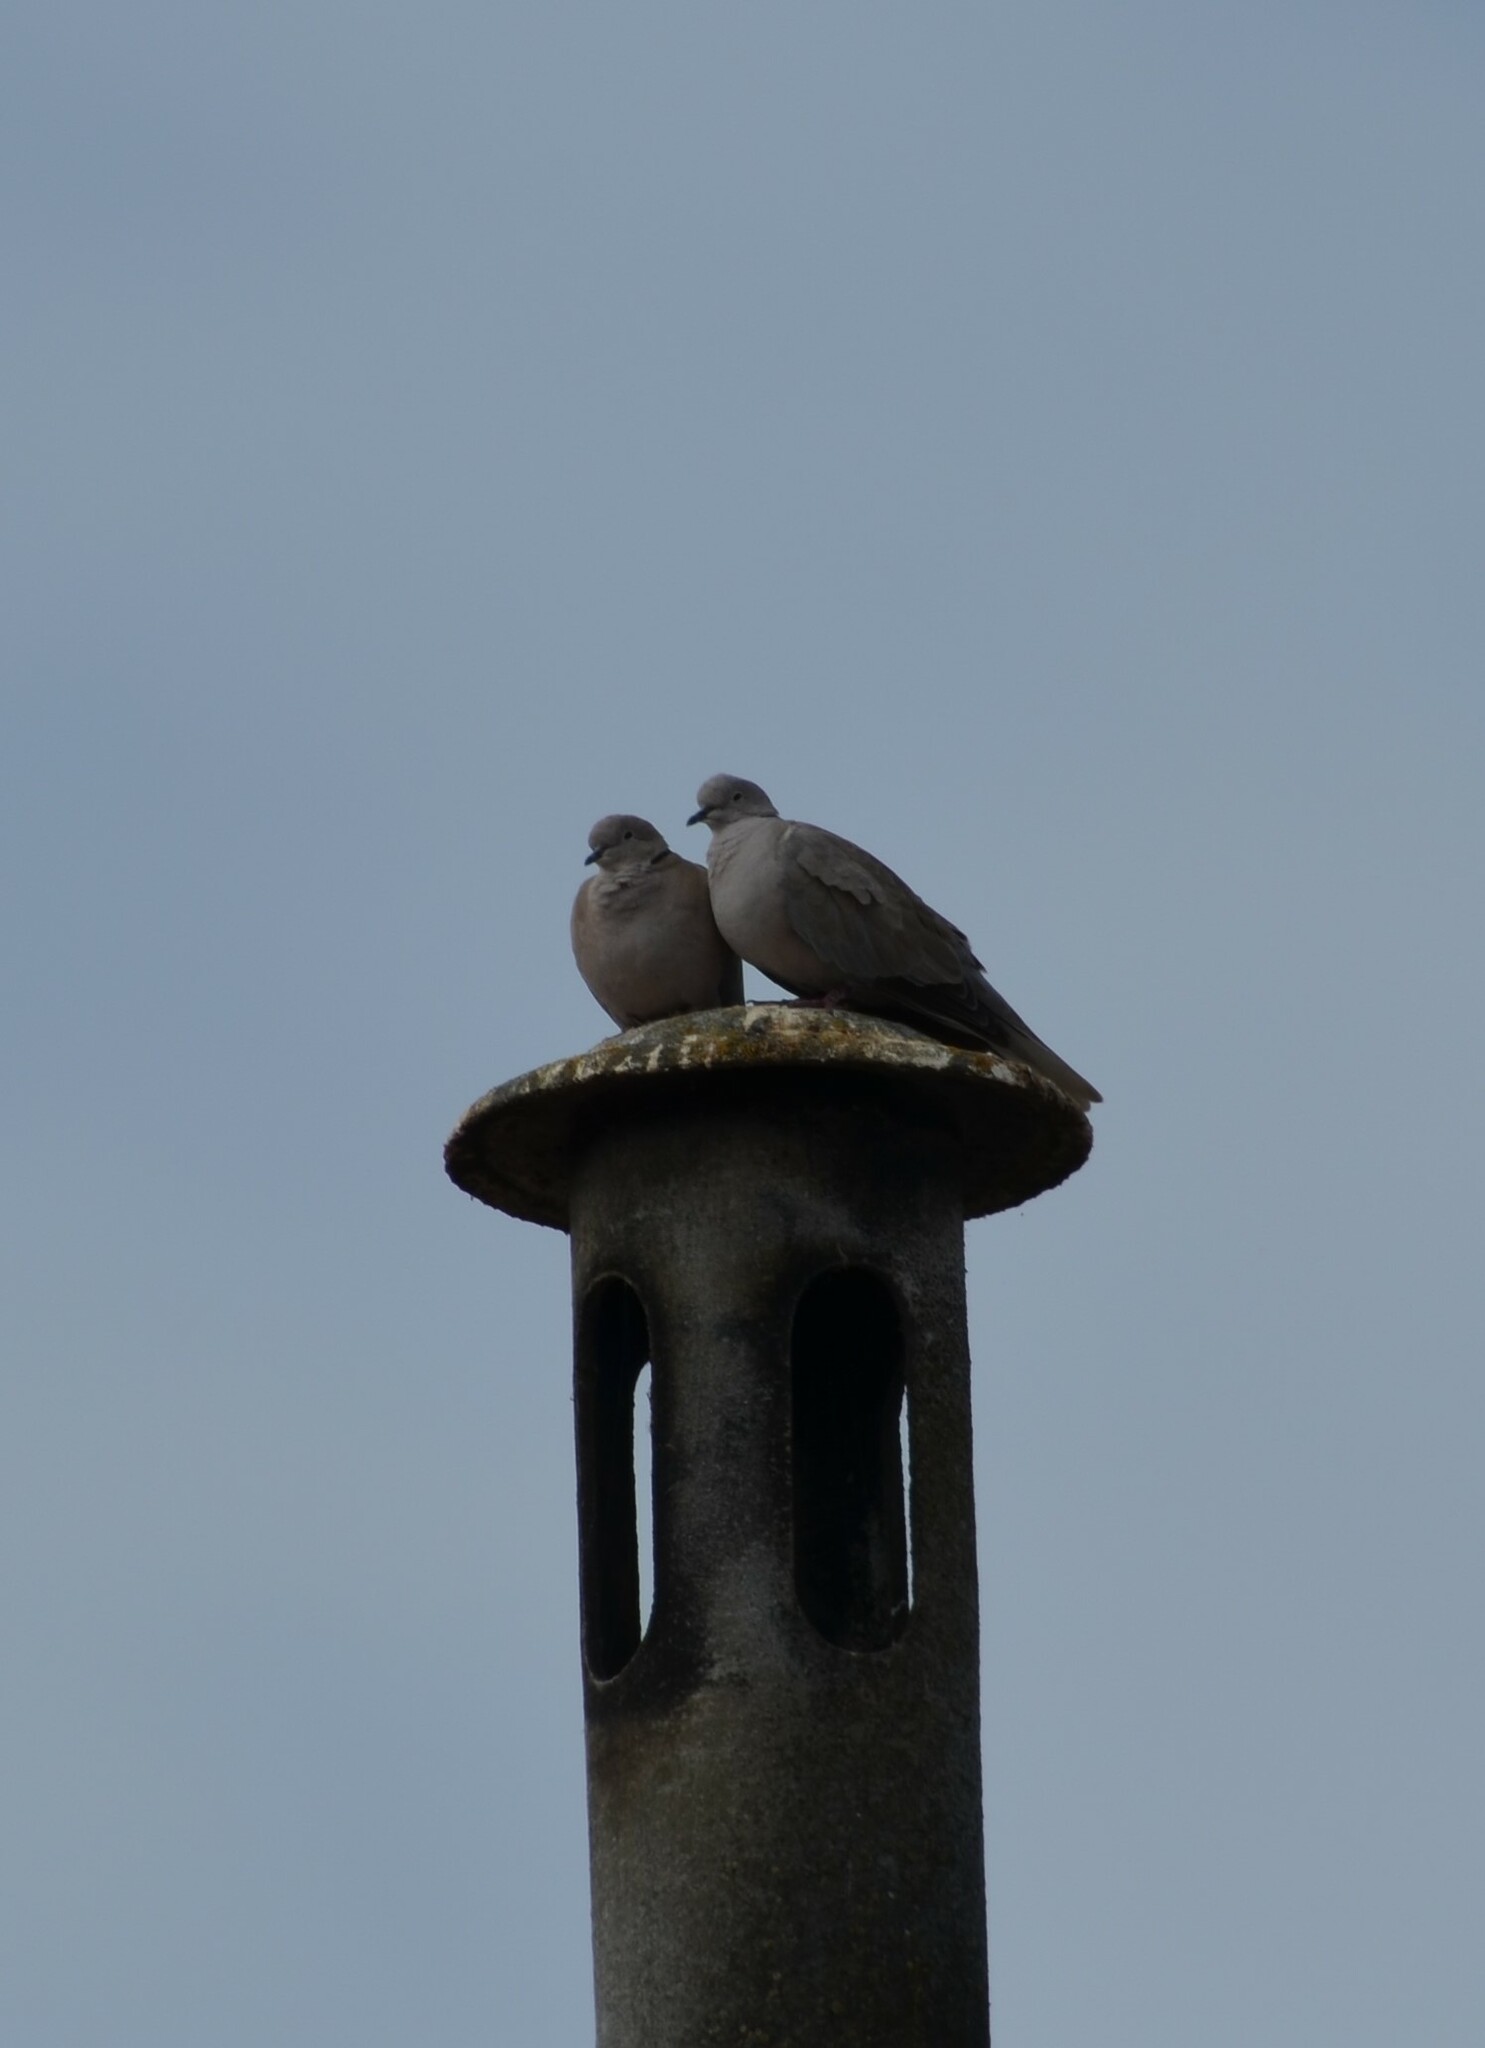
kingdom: Animalia
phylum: Chordata
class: Aves
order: Columbiformes
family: Columbidae
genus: Streptopelia
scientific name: Streptopelia decaocto
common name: Eurasian collared dove
